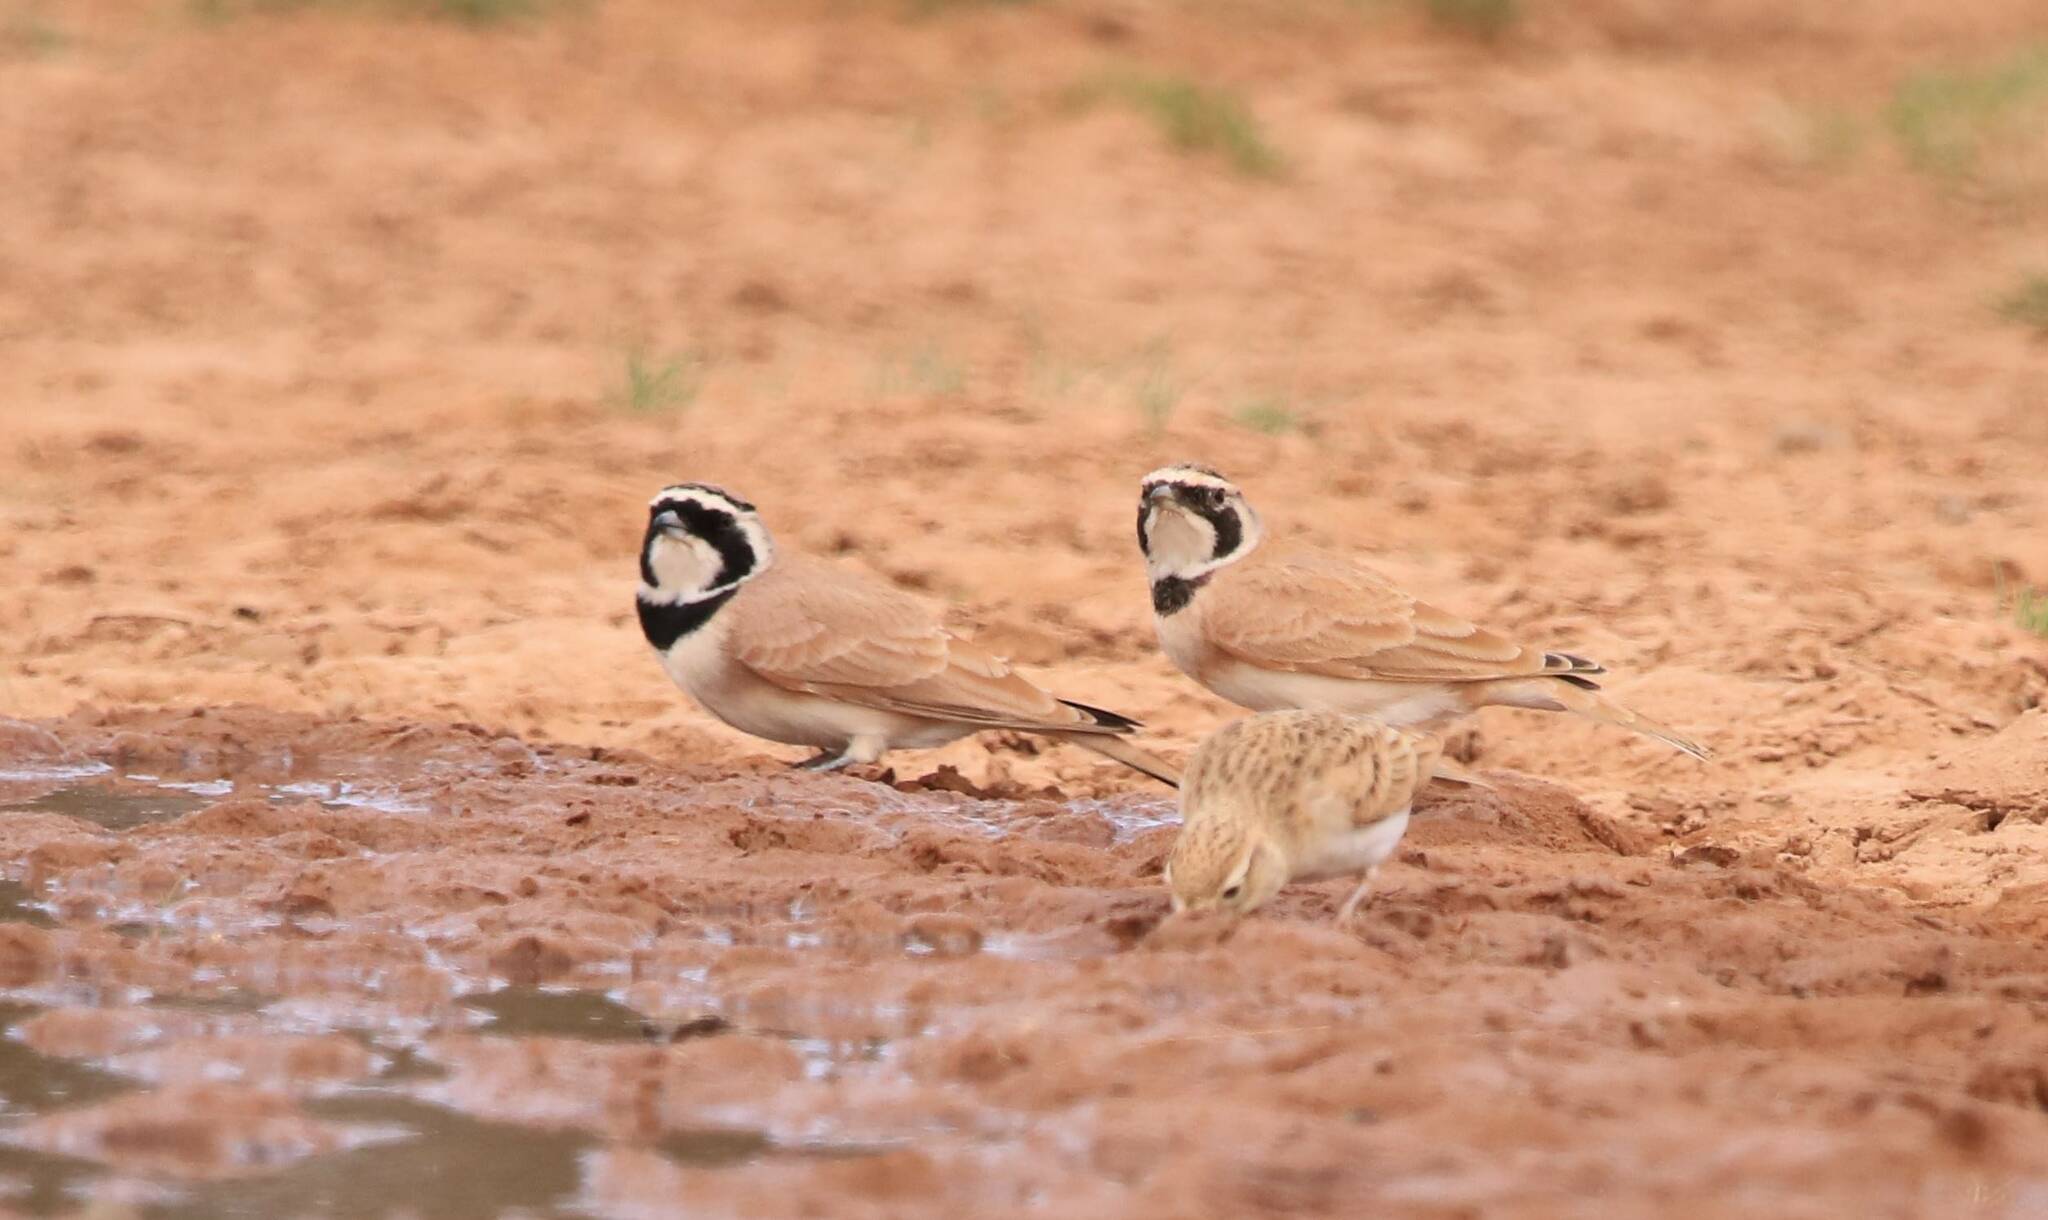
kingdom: Animalia
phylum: Chordata
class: Aves
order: Passeriformes
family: Alaudidae
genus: Eremophila
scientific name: Eremophila bilopha
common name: Temminck's lark
